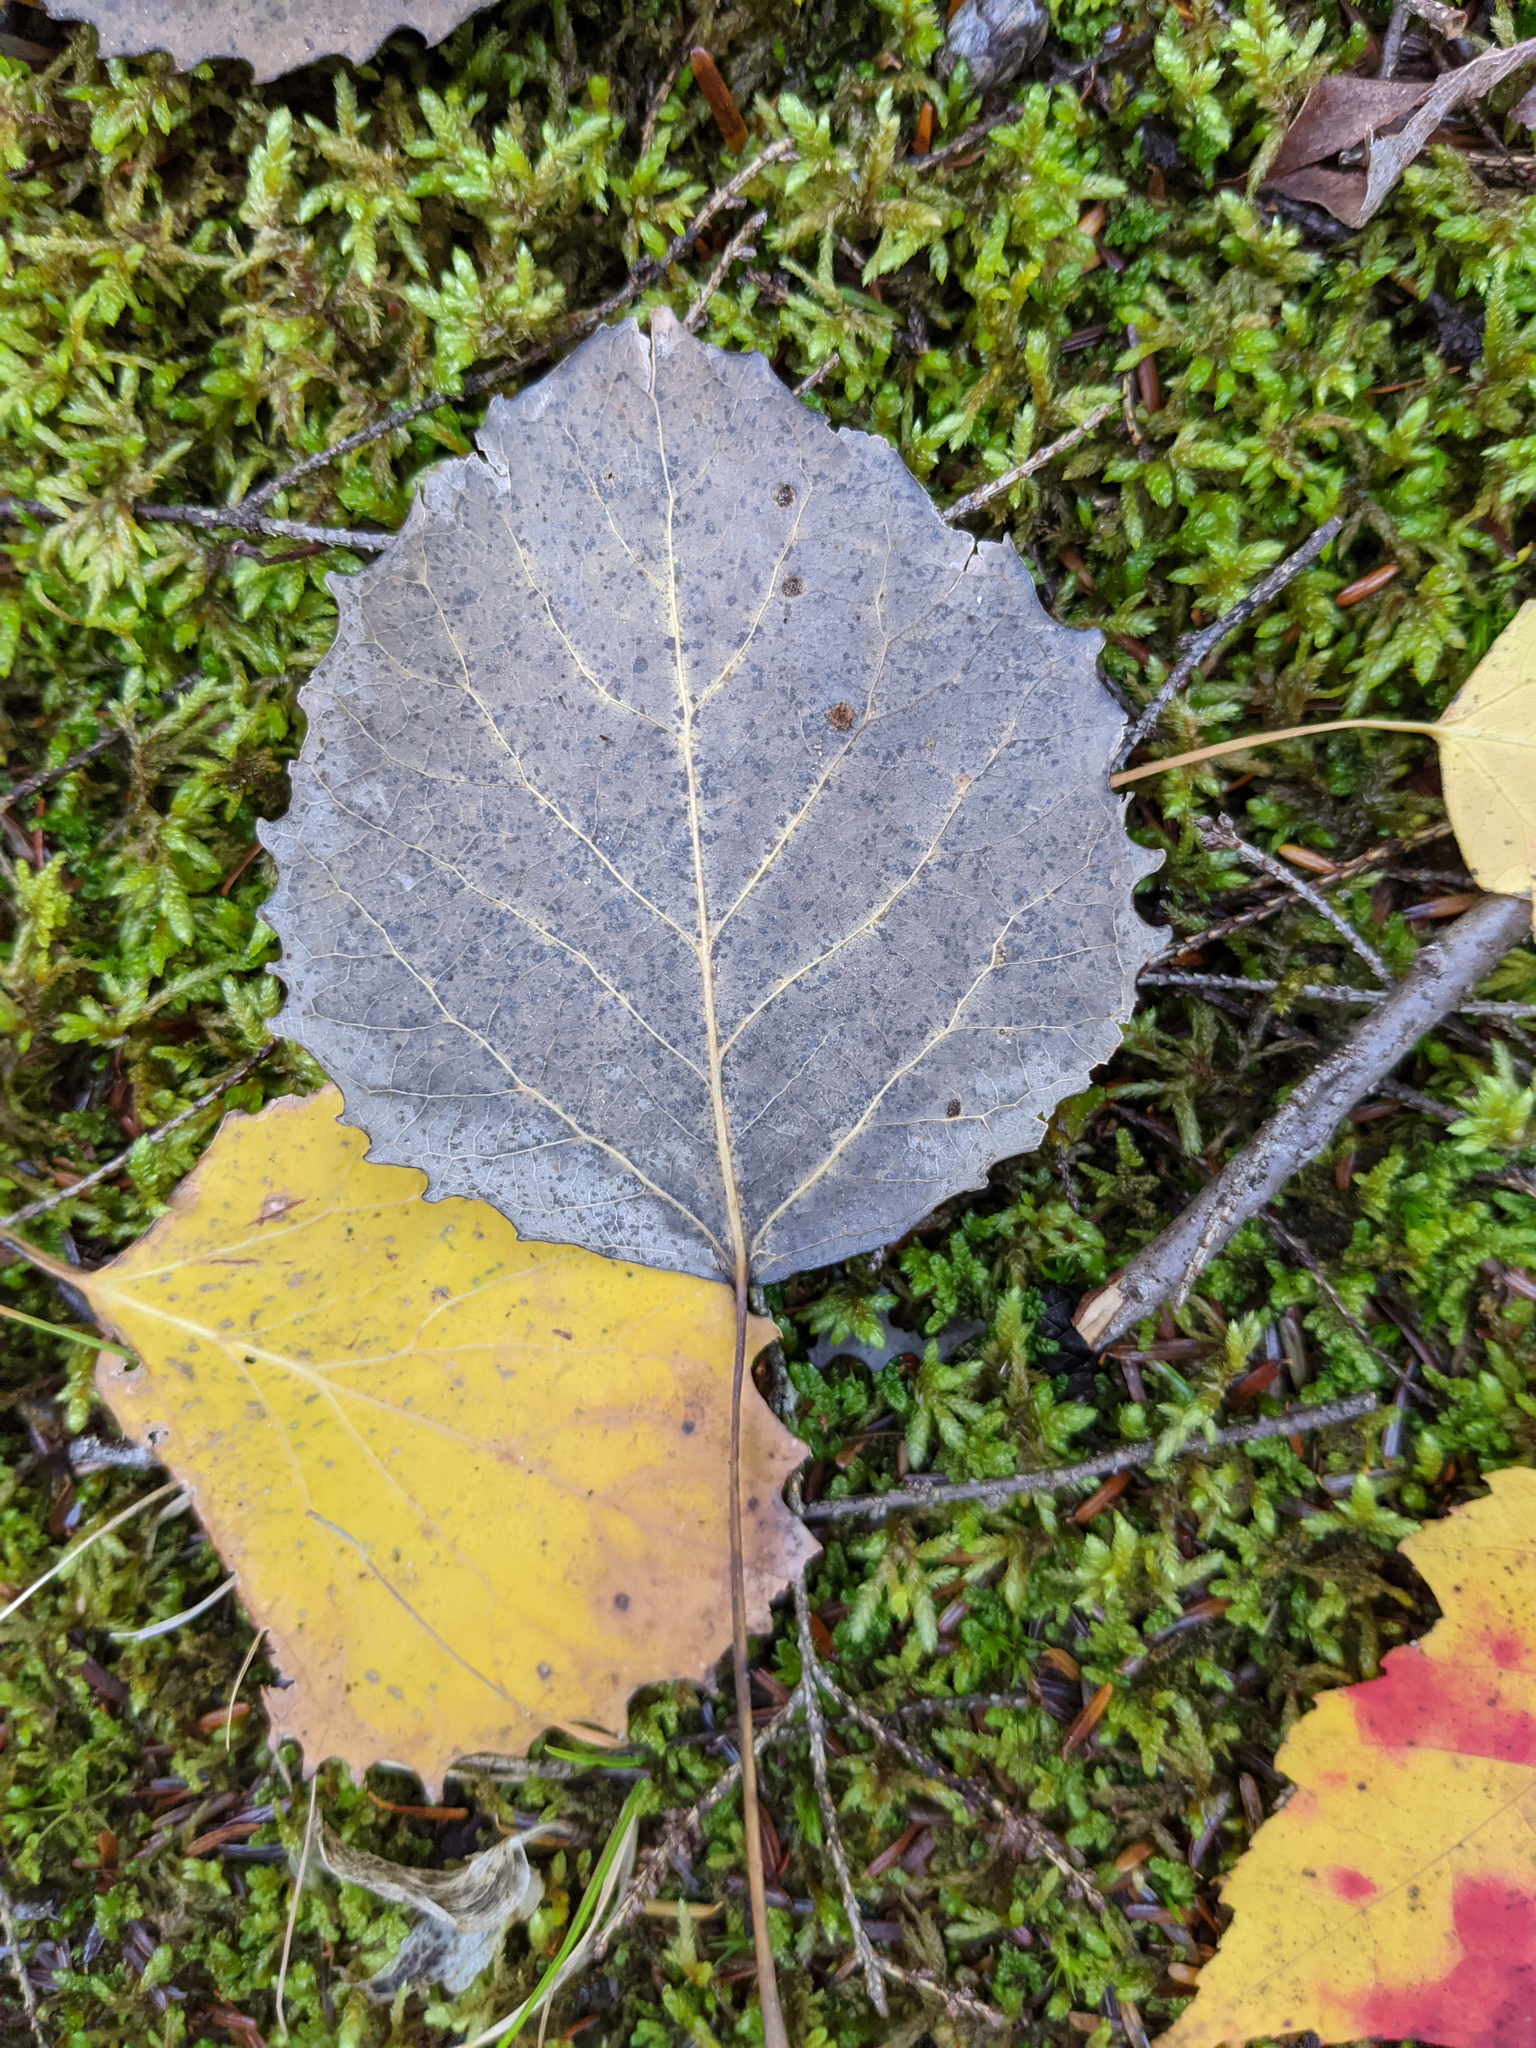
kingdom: Plantae
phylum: Tracheophyta
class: Magnoliopsida
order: Malpighiales
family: Salicaceae
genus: Populus
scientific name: Populus grandidentata
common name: Bigtooth aspen
